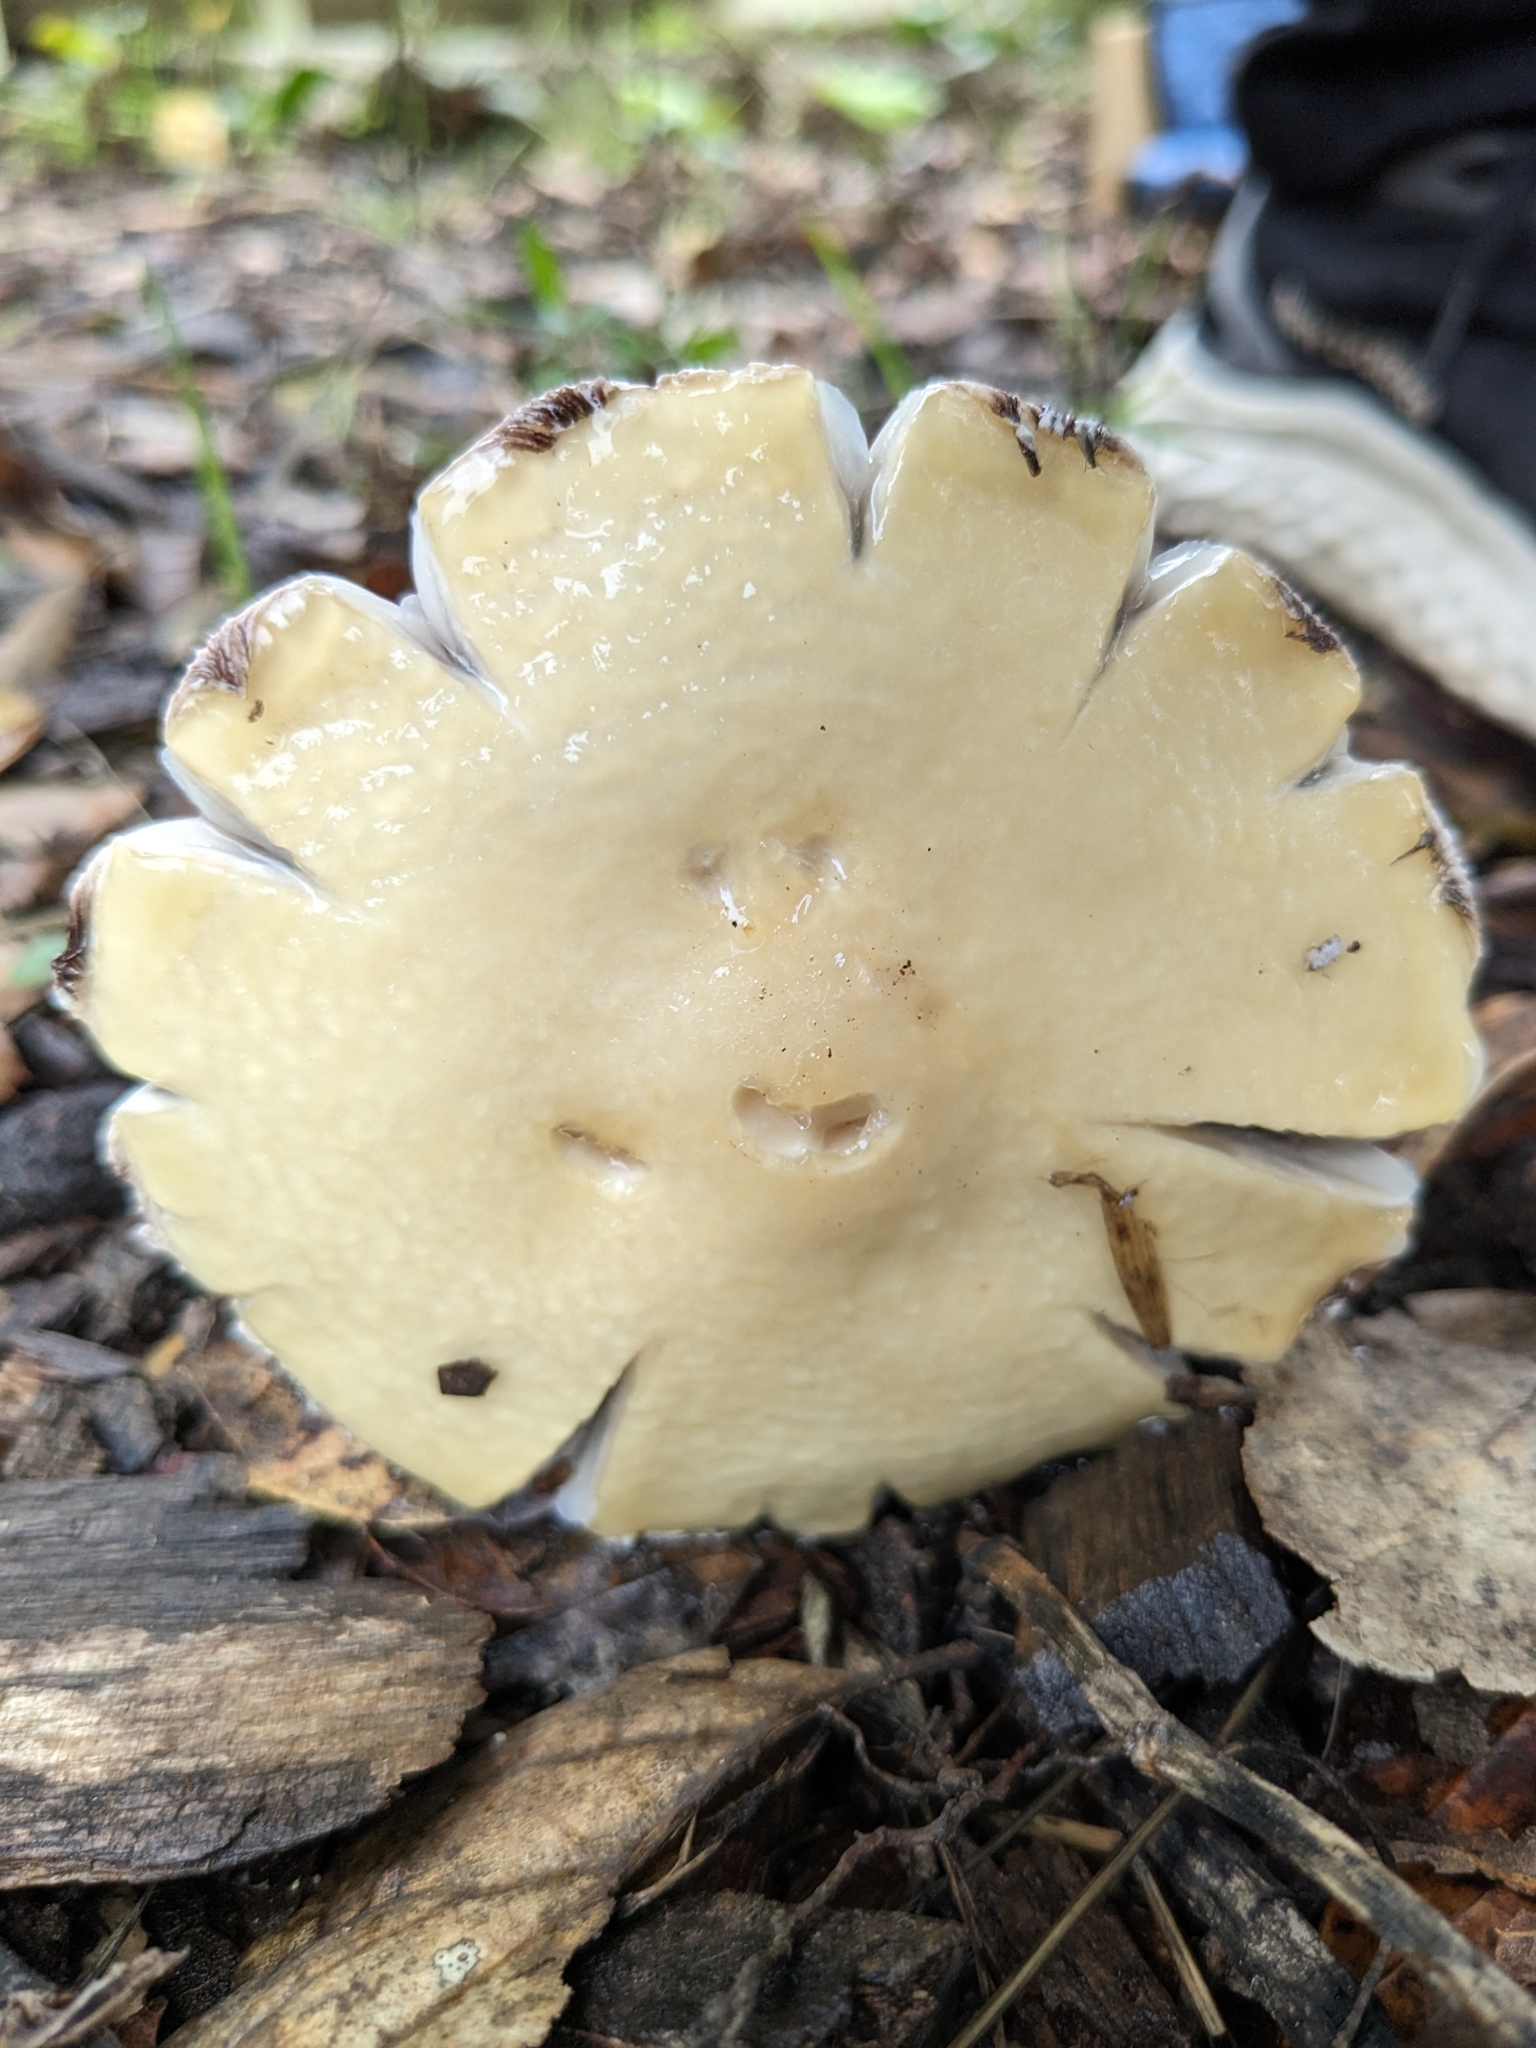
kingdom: Fungi
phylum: Basidiomycota
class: Agaricomycetes
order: Agaricales
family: Strophariaceae
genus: Stropharia
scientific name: Stropharia ambigua
